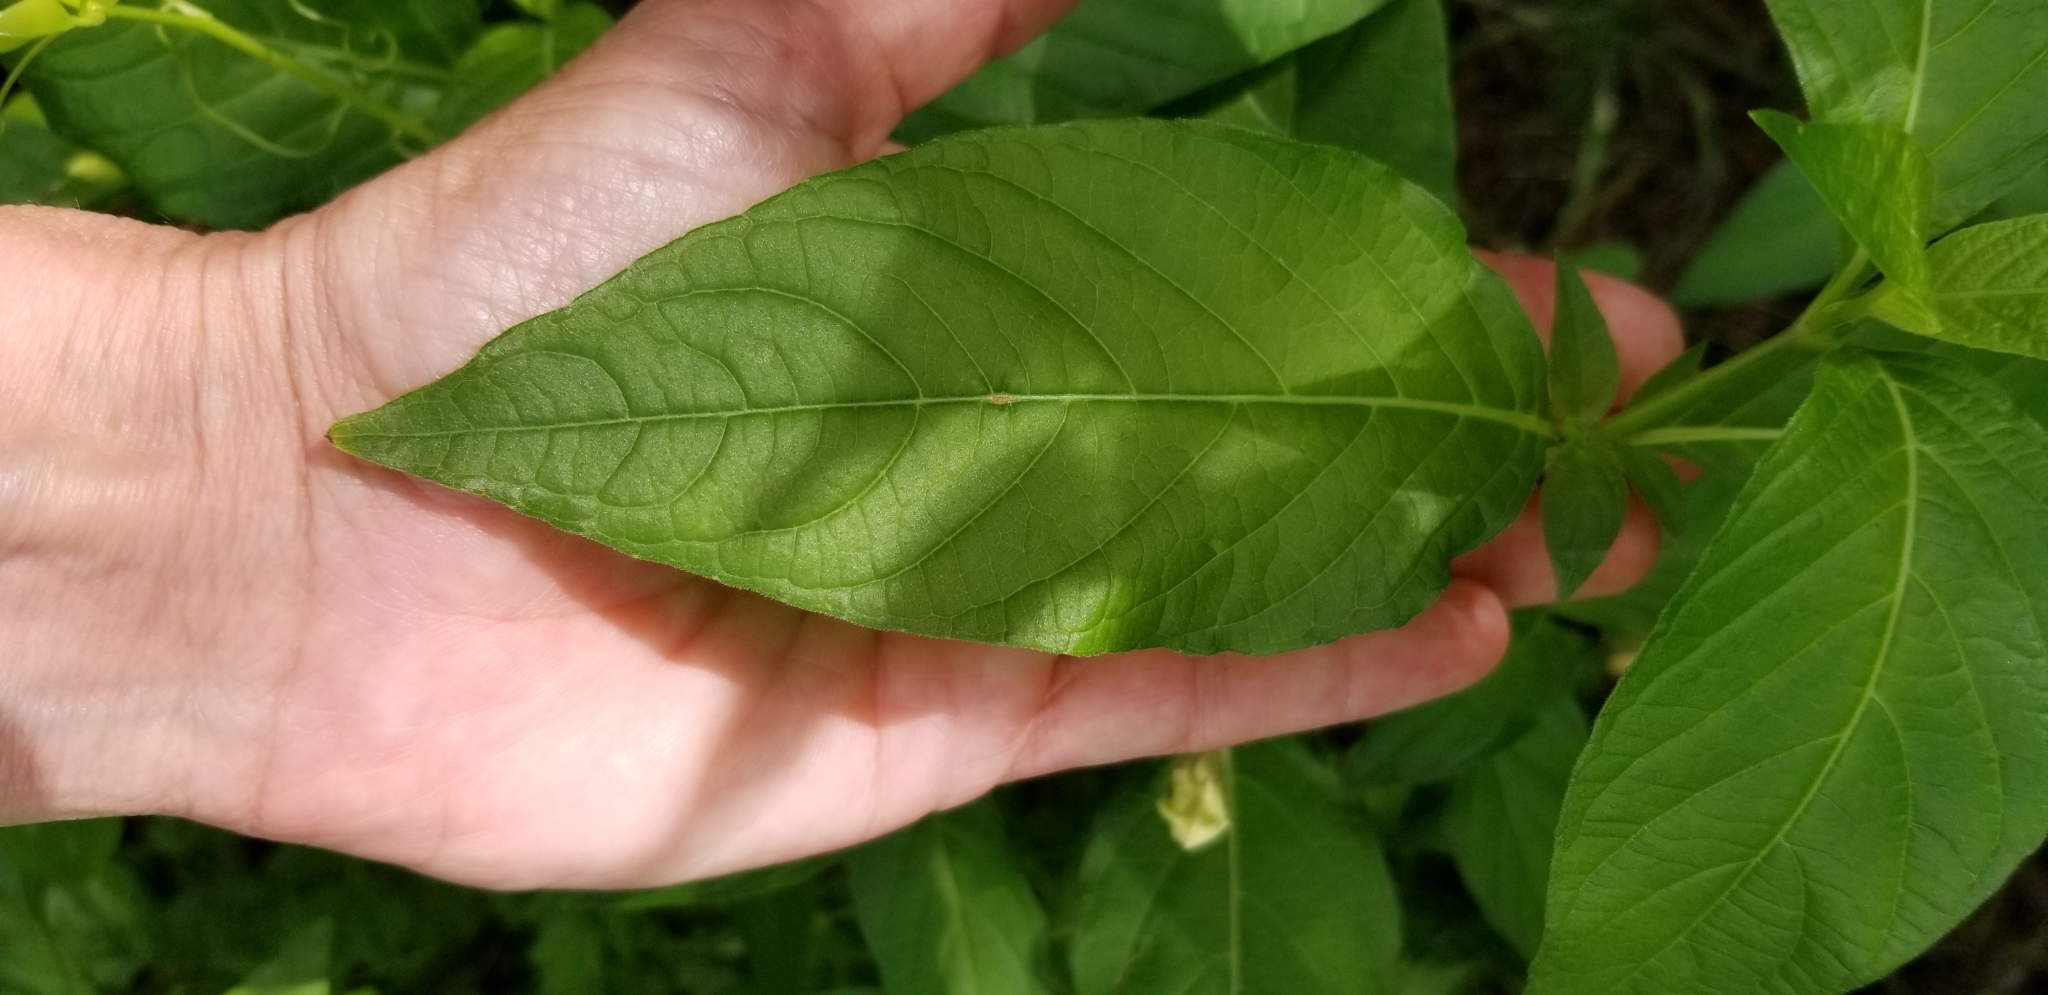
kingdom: Plantae
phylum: Tracheophyta
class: Magnoliopsida
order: Lamiales
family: Acanthaceae
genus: Ruellia
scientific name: Ruellia strepens
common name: Limestone wild petunia
